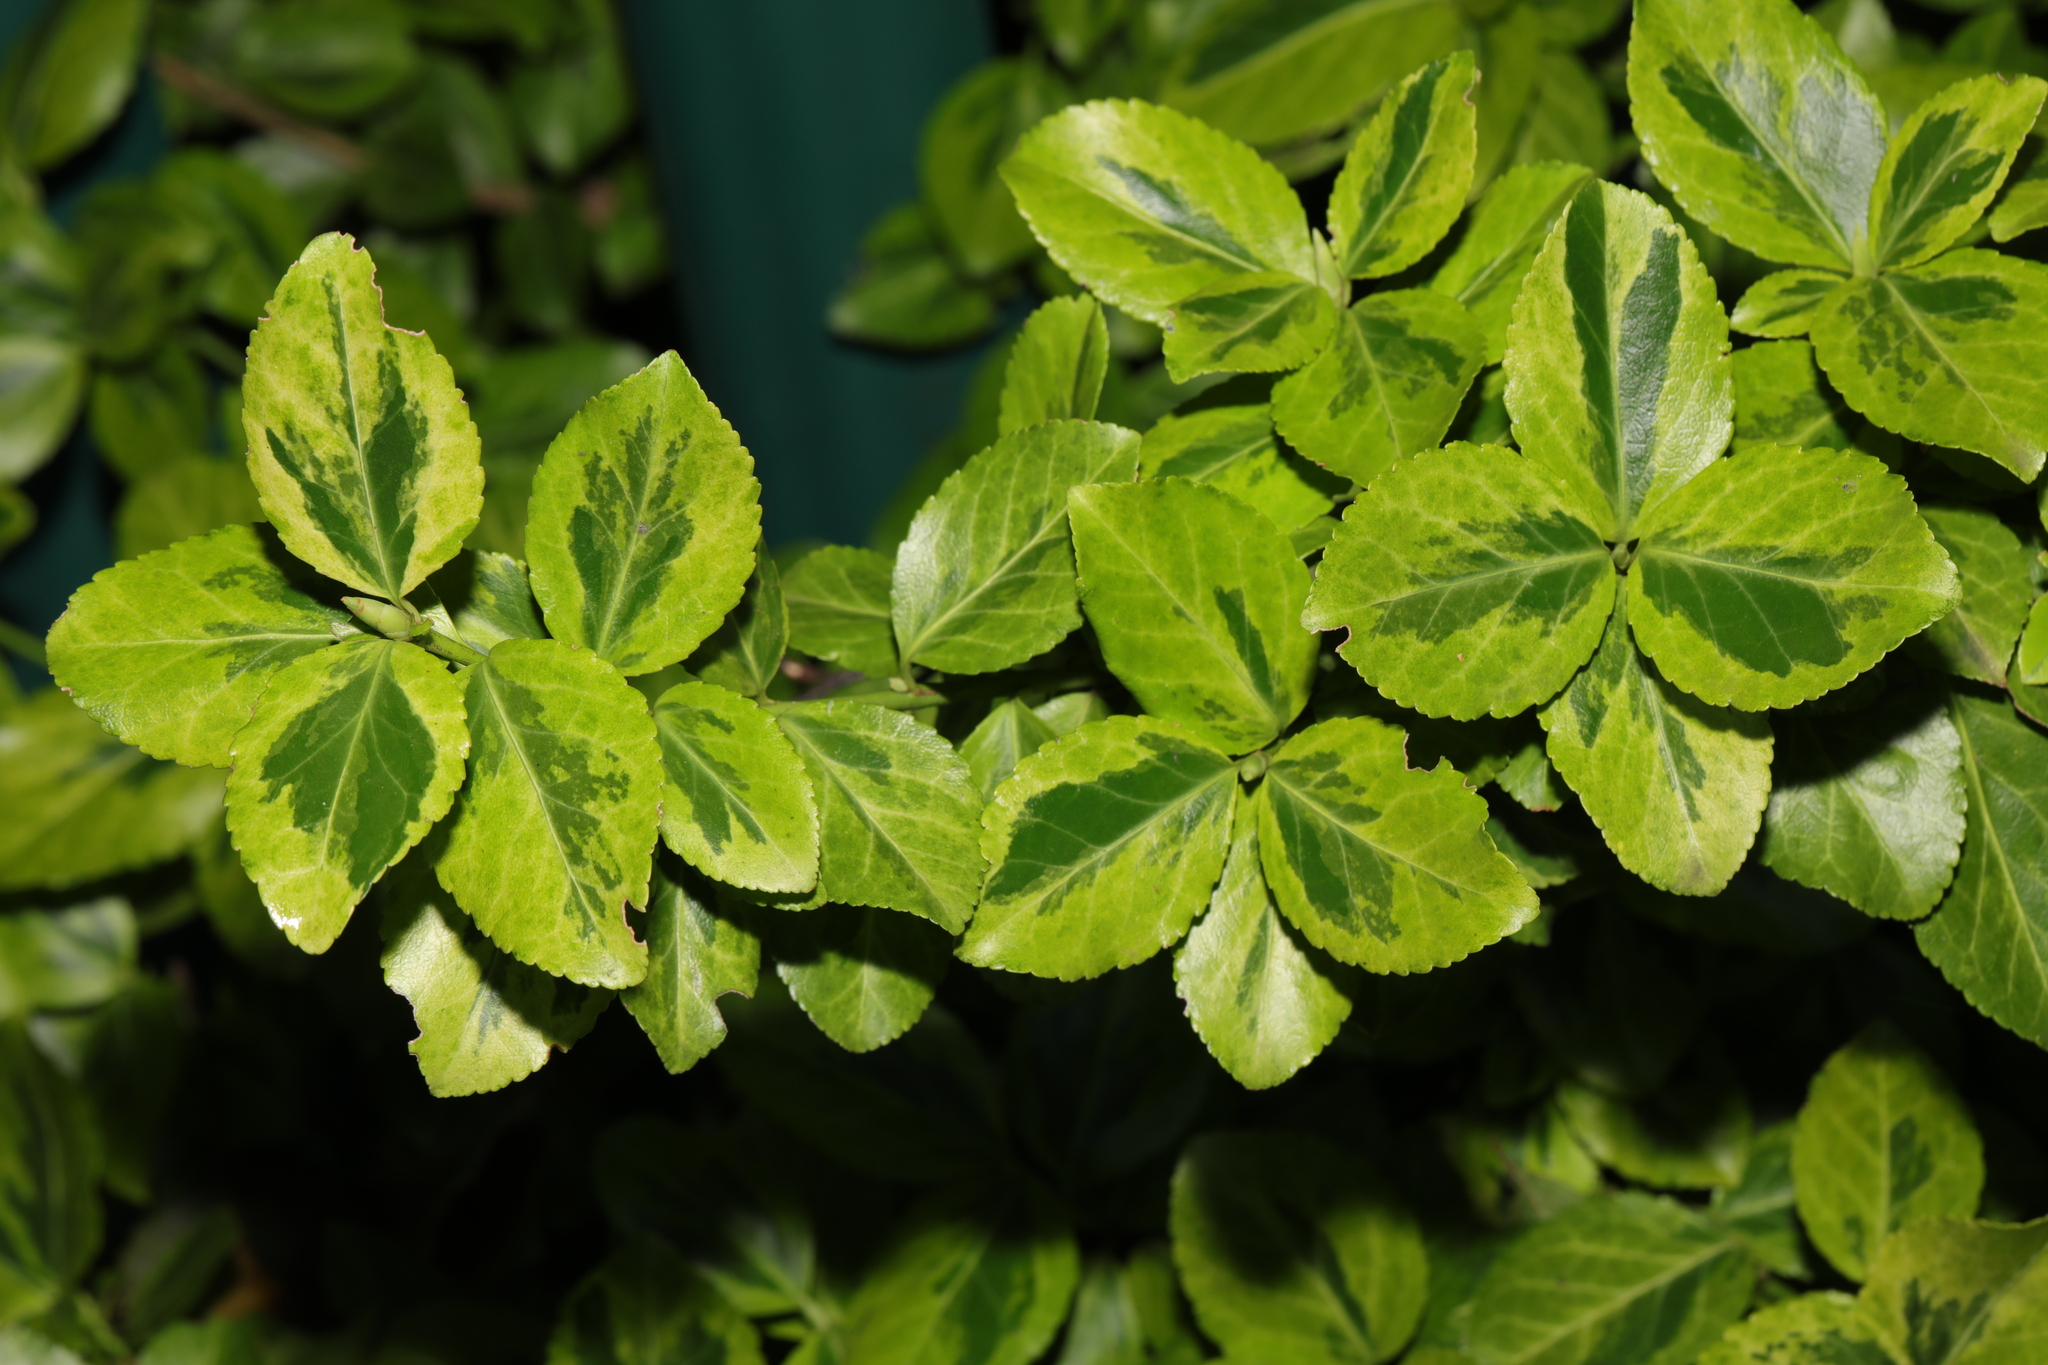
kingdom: Plantae
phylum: Tracheophyta
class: Magnoliopsida
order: Celastrales
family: Celastraceae
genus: Euonymus
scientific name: Euonymus japonicus
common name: Japanese spindletree
